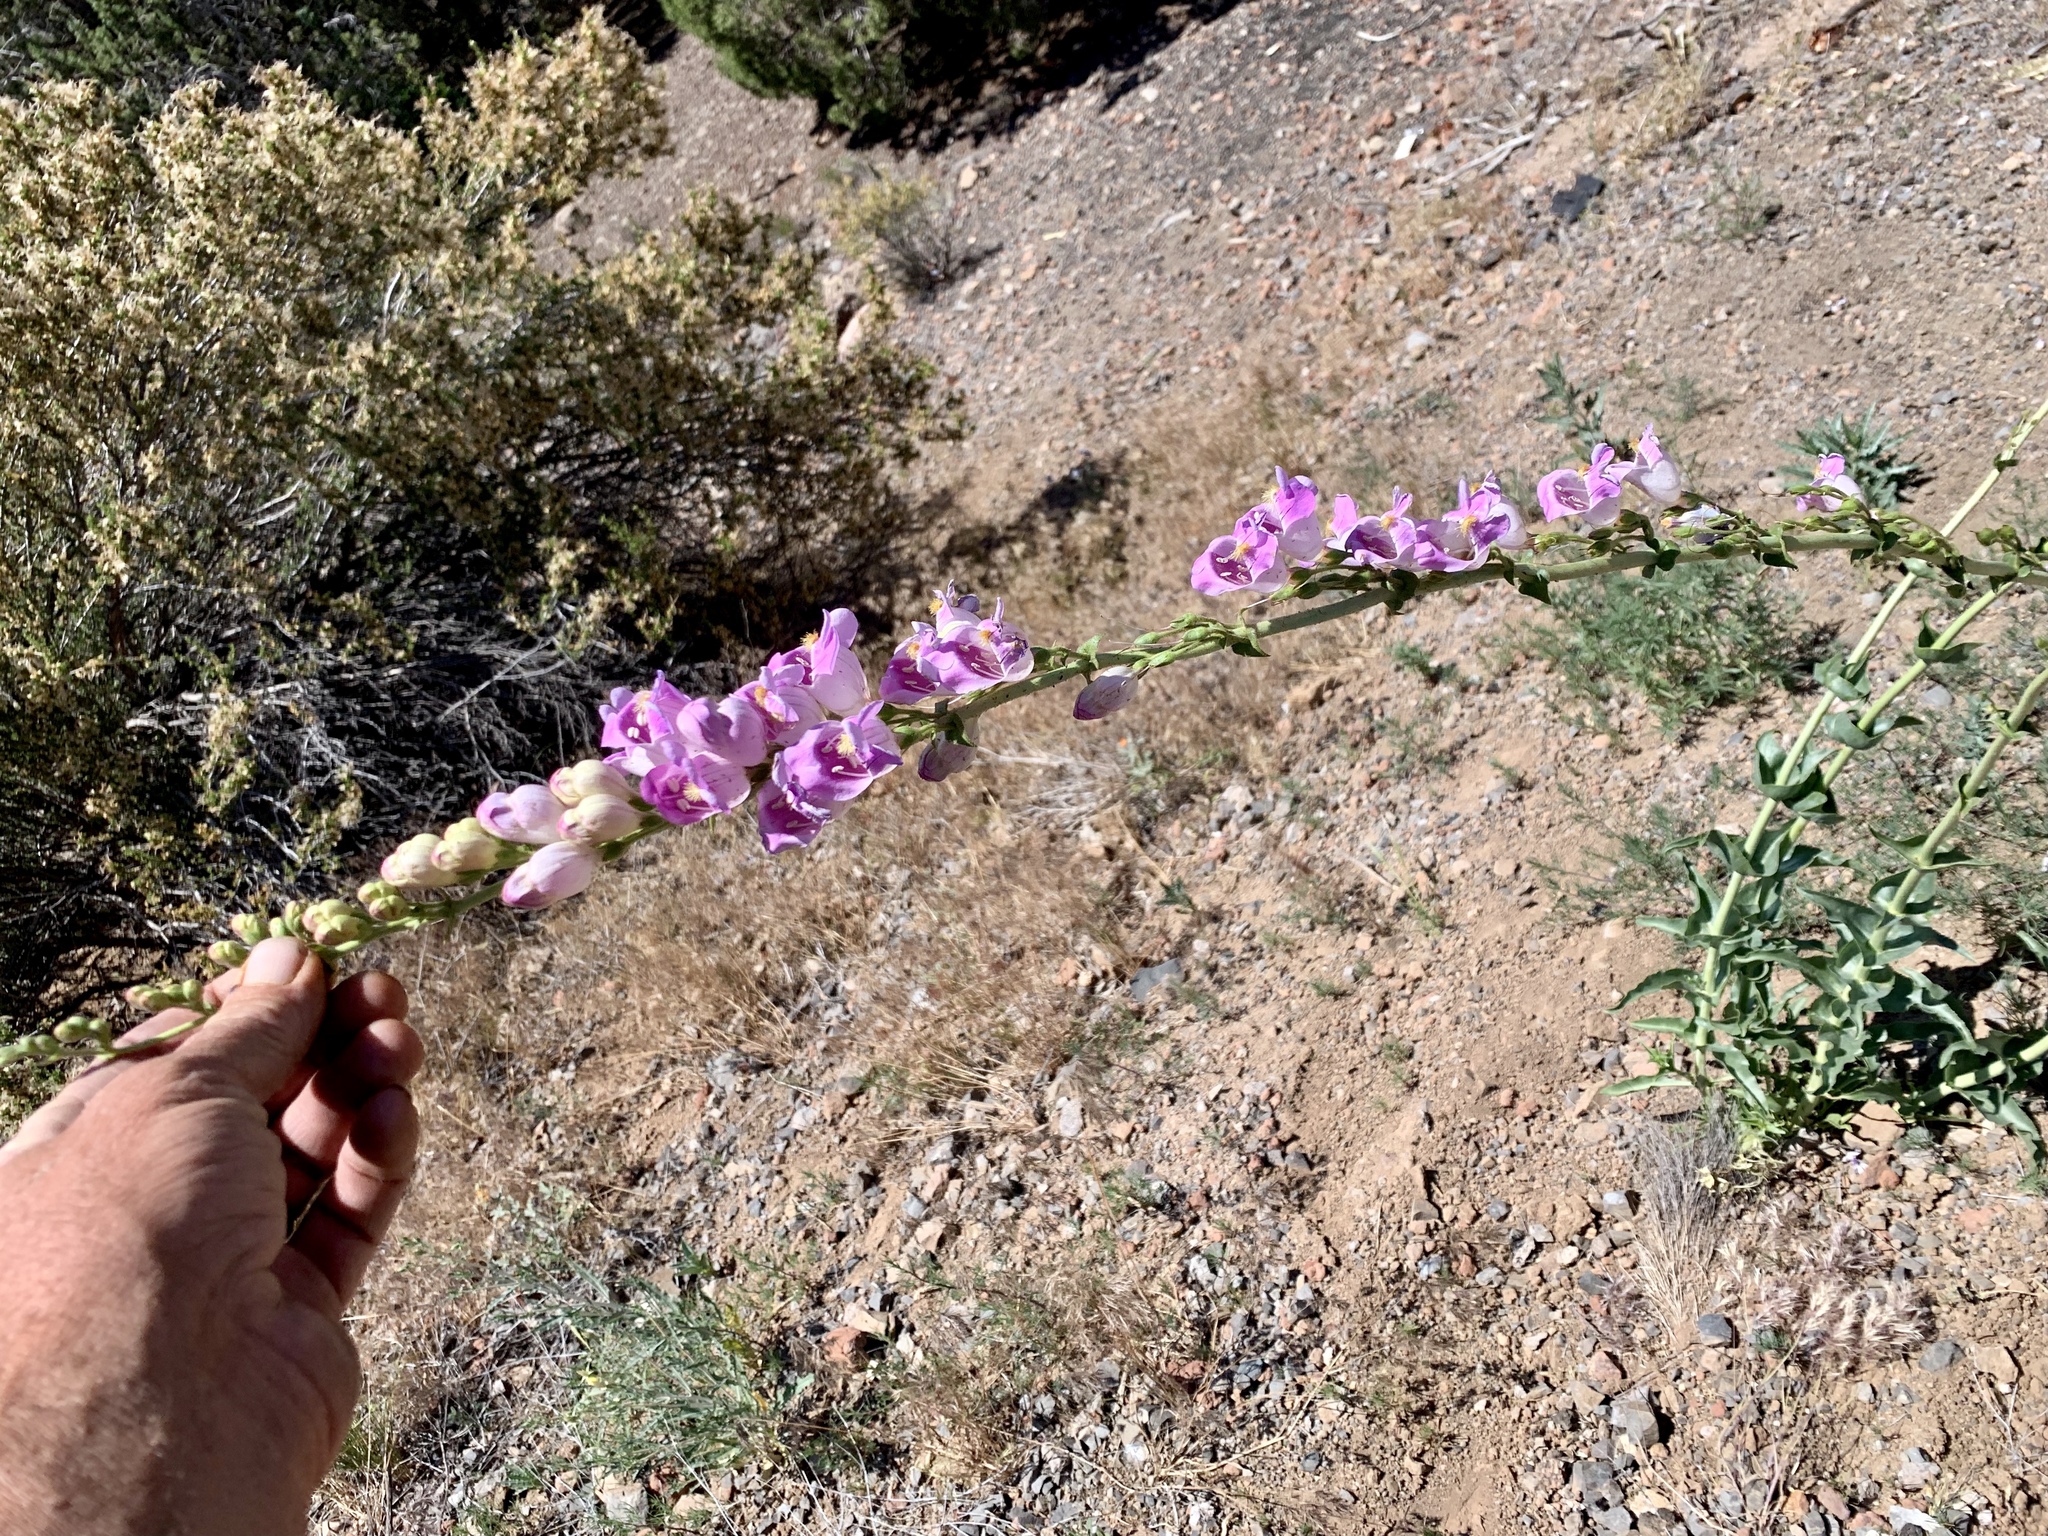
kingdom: Plantae
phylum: Tracheophyta
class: Magnoliopsida
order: Lamiales
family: Plantaginaceae
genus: Penstemon
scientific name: Penstemon palmeri
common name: Palmer penstemon
